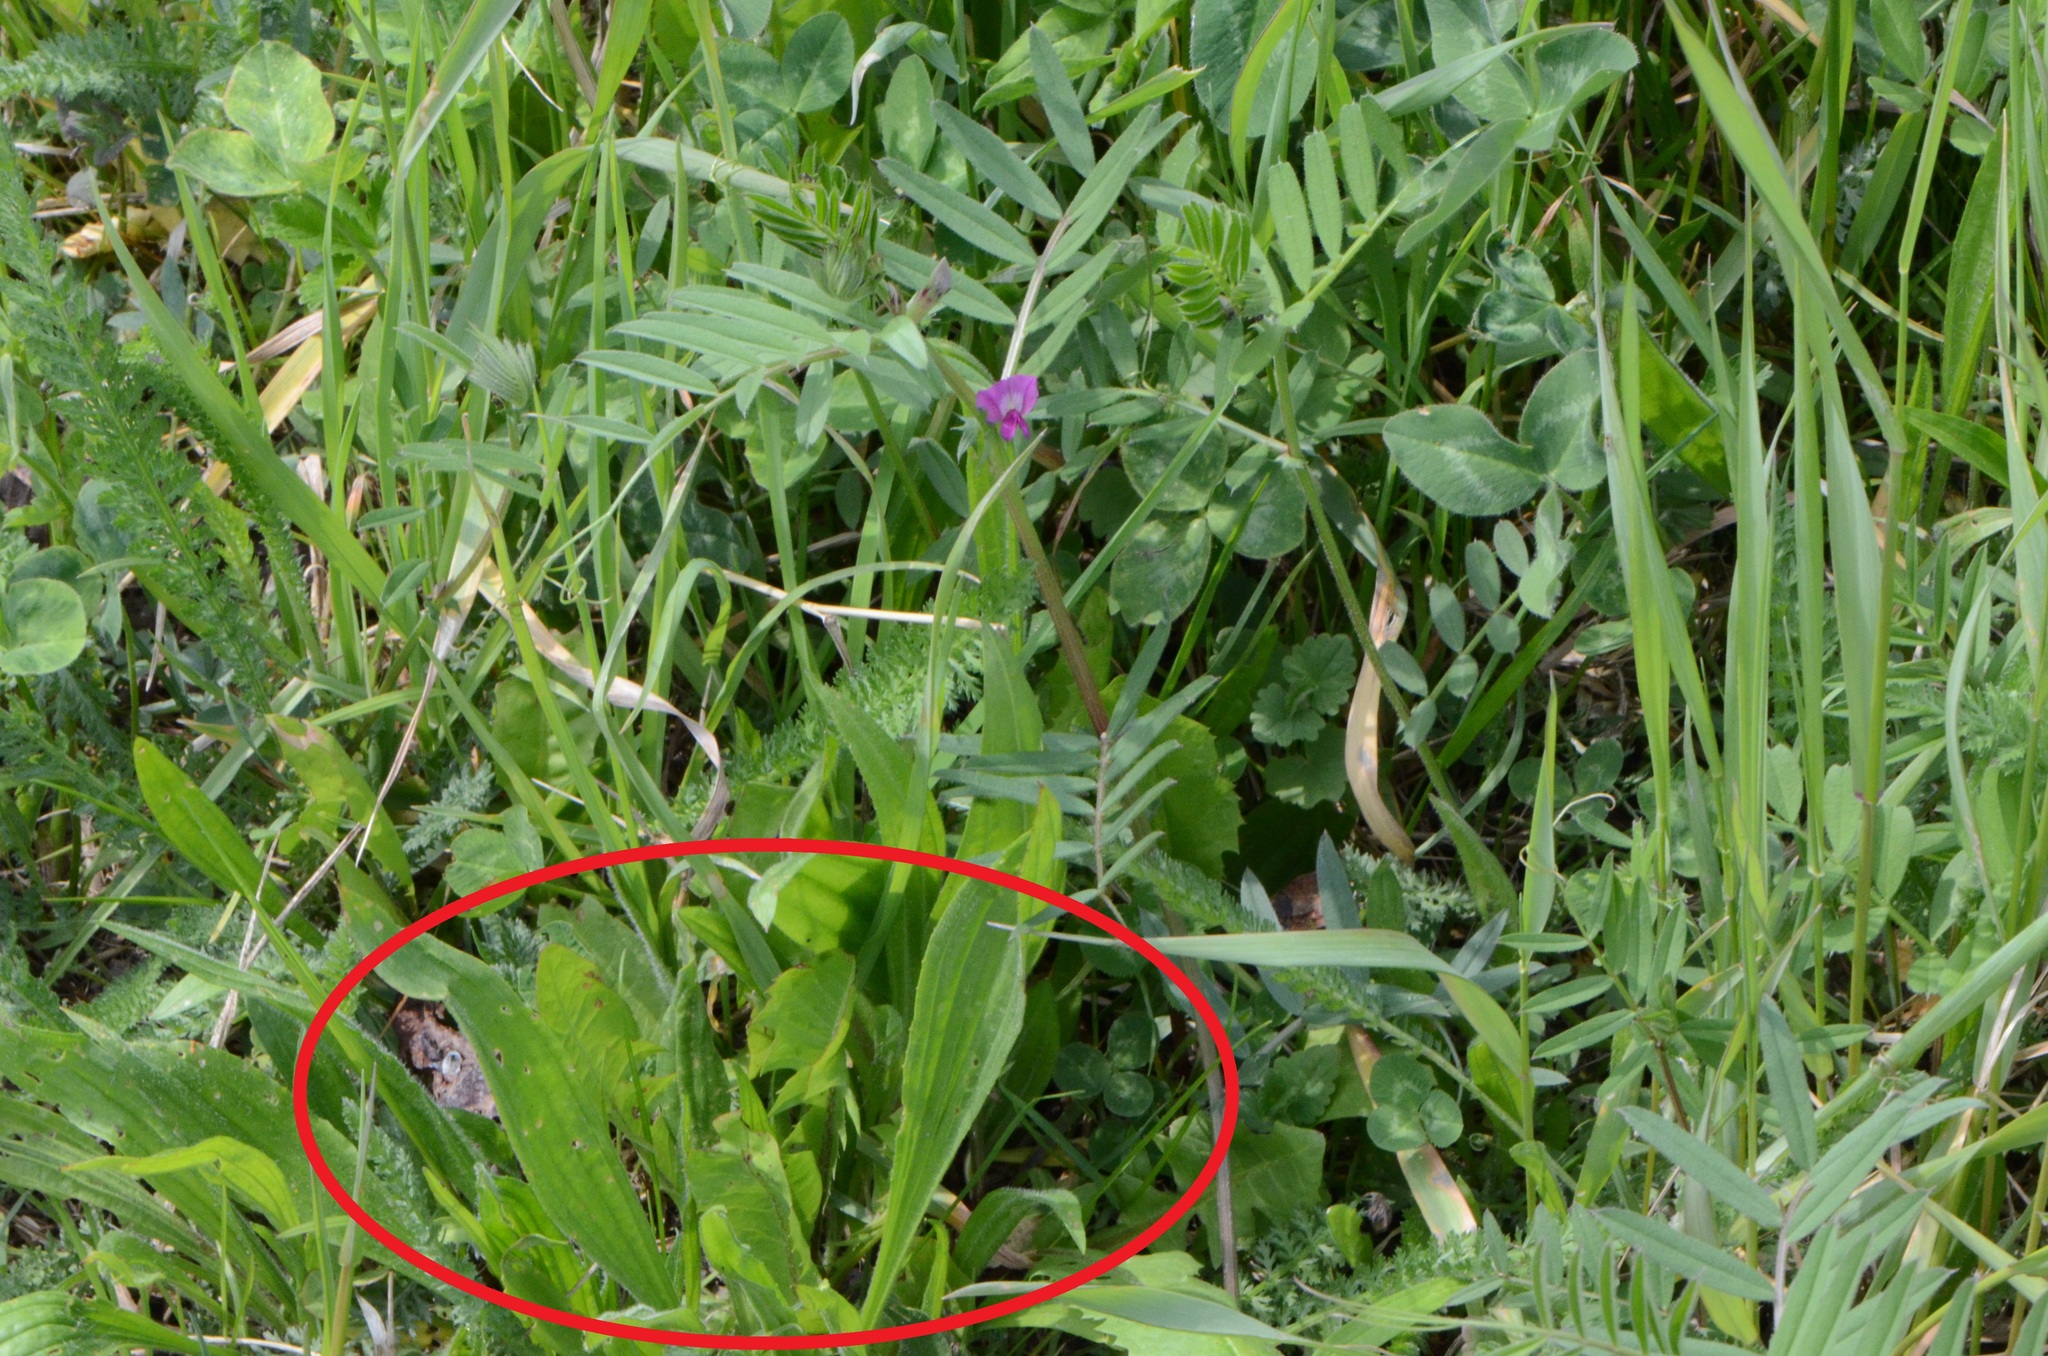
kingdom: Plantae
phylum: Tracheophyta
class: Magnoliopsida
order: Lamiales
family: Plantaginaceae
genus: Plantago
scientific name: Plantago lanceolata
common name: Ribwort plantain
